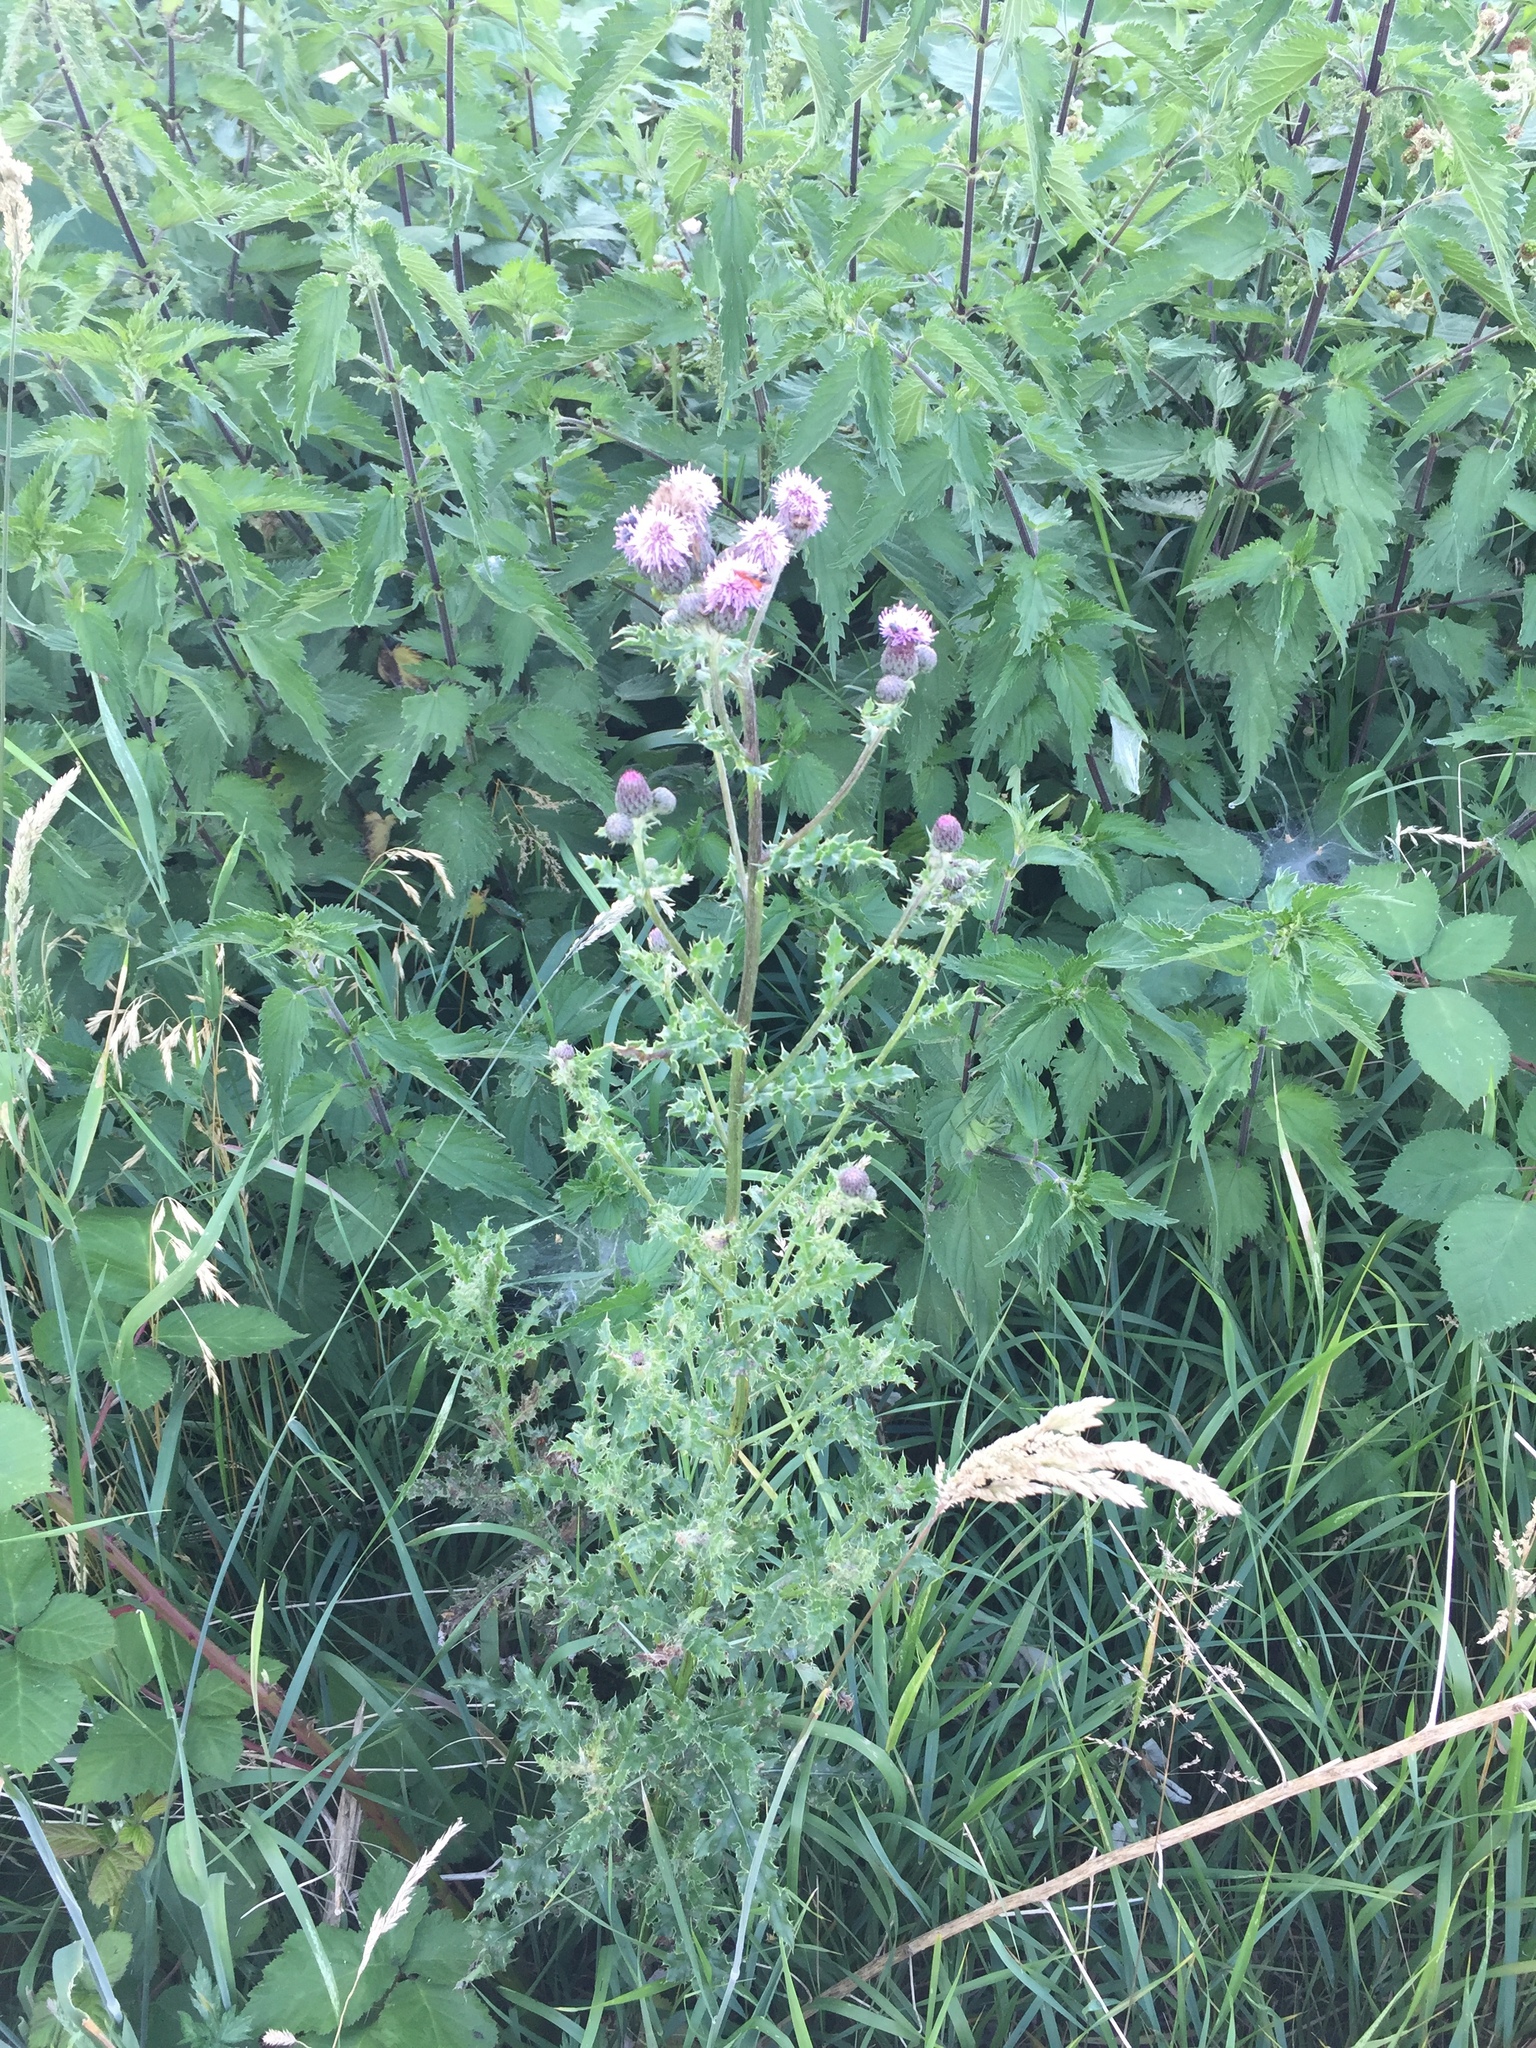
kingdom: Plantae
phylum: Tracheophyta
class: Magnoliopsida
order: Asterales
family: Asteraceae
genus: Cirsium
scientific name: Cirsium arvense
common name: Creeping thistle
